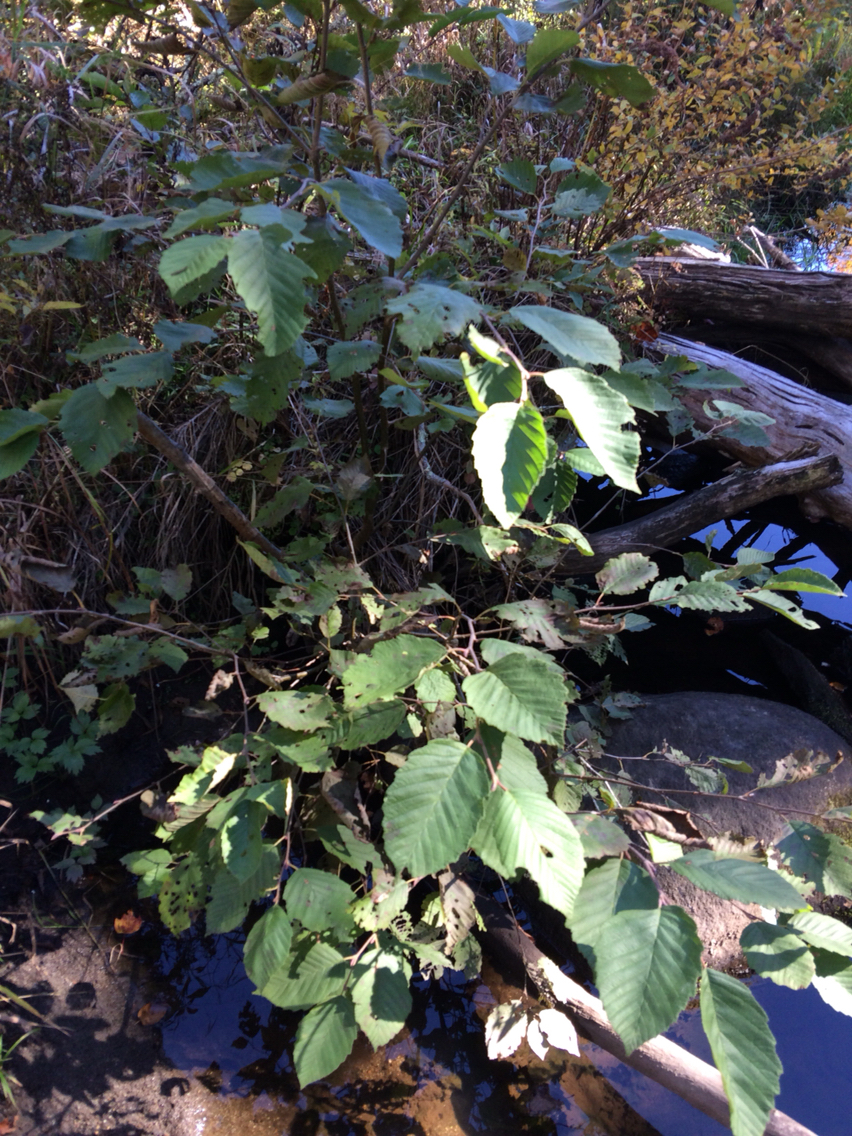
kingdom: Plantae
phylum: Tracheophyta
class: Magnoliopsida
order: Fagales
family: Betulaceae
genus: Alnus
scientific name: Alnus incana
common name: Grey alder
